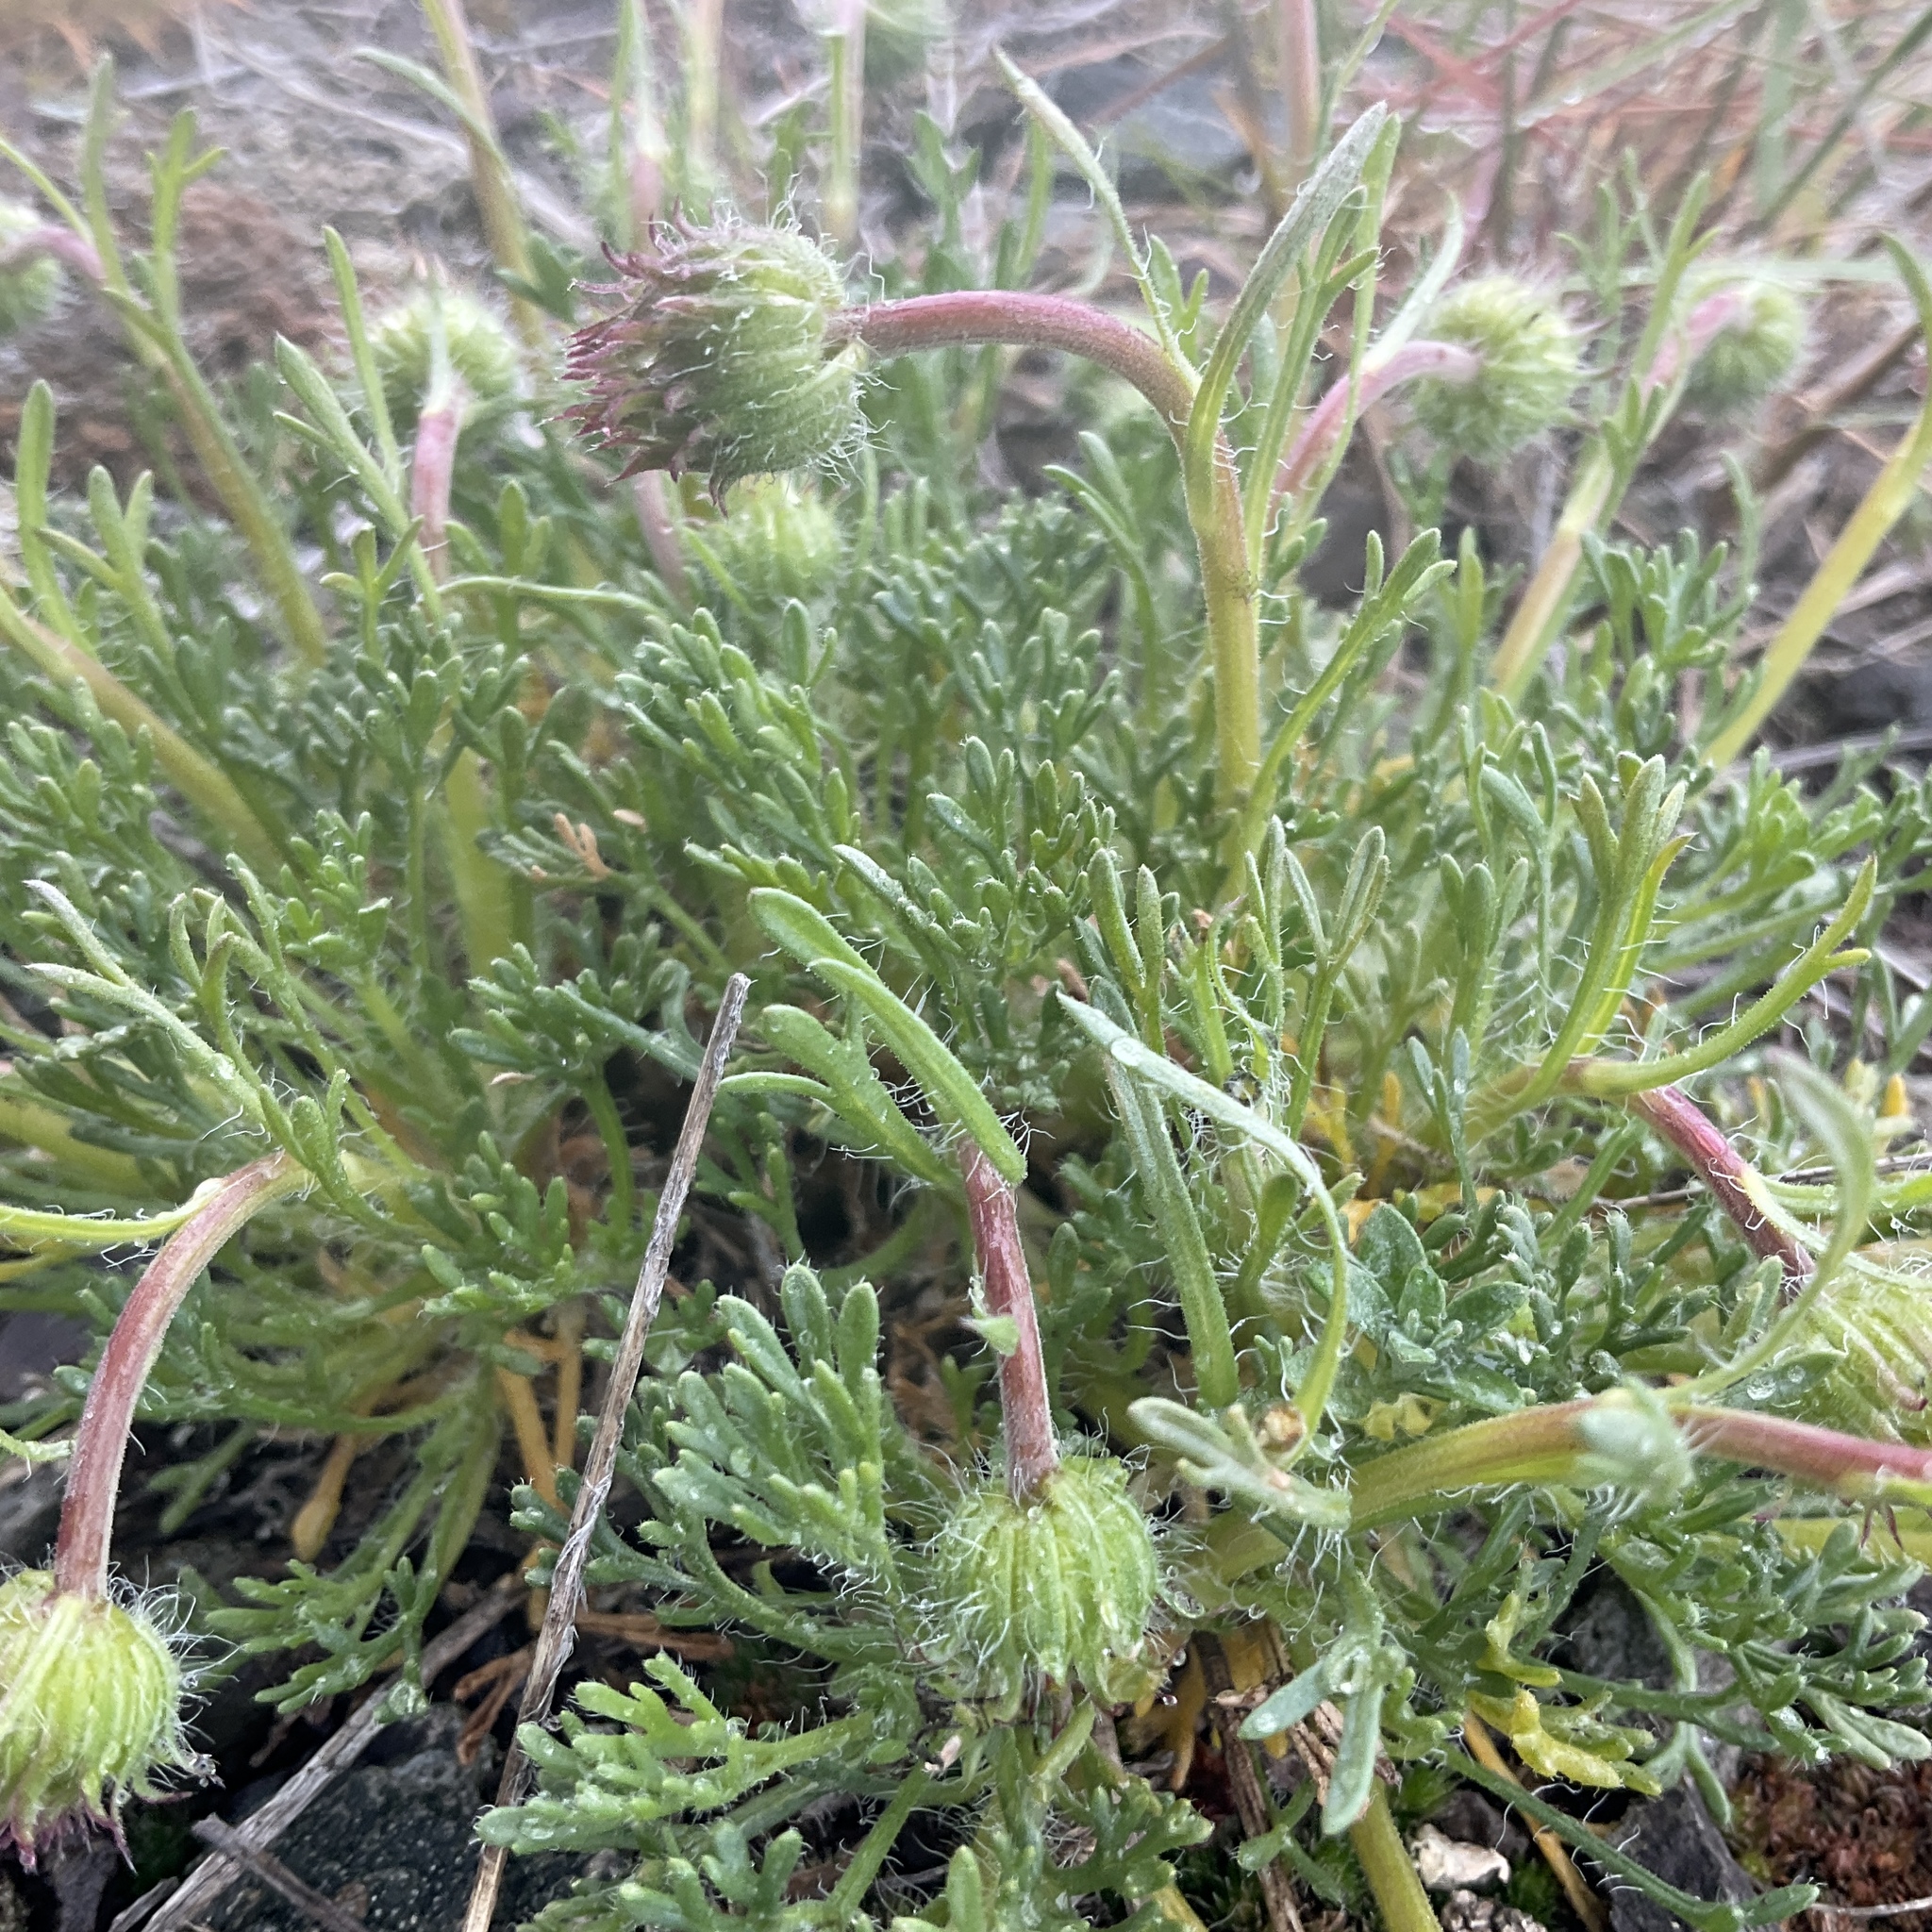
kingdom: Plantae
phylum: Tracheophyta
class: Magnoliopsida
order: Asterales
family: Asteraceae
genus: Erigeron
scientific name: Erigeron compositus
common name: Dwarf mountain fleabane
